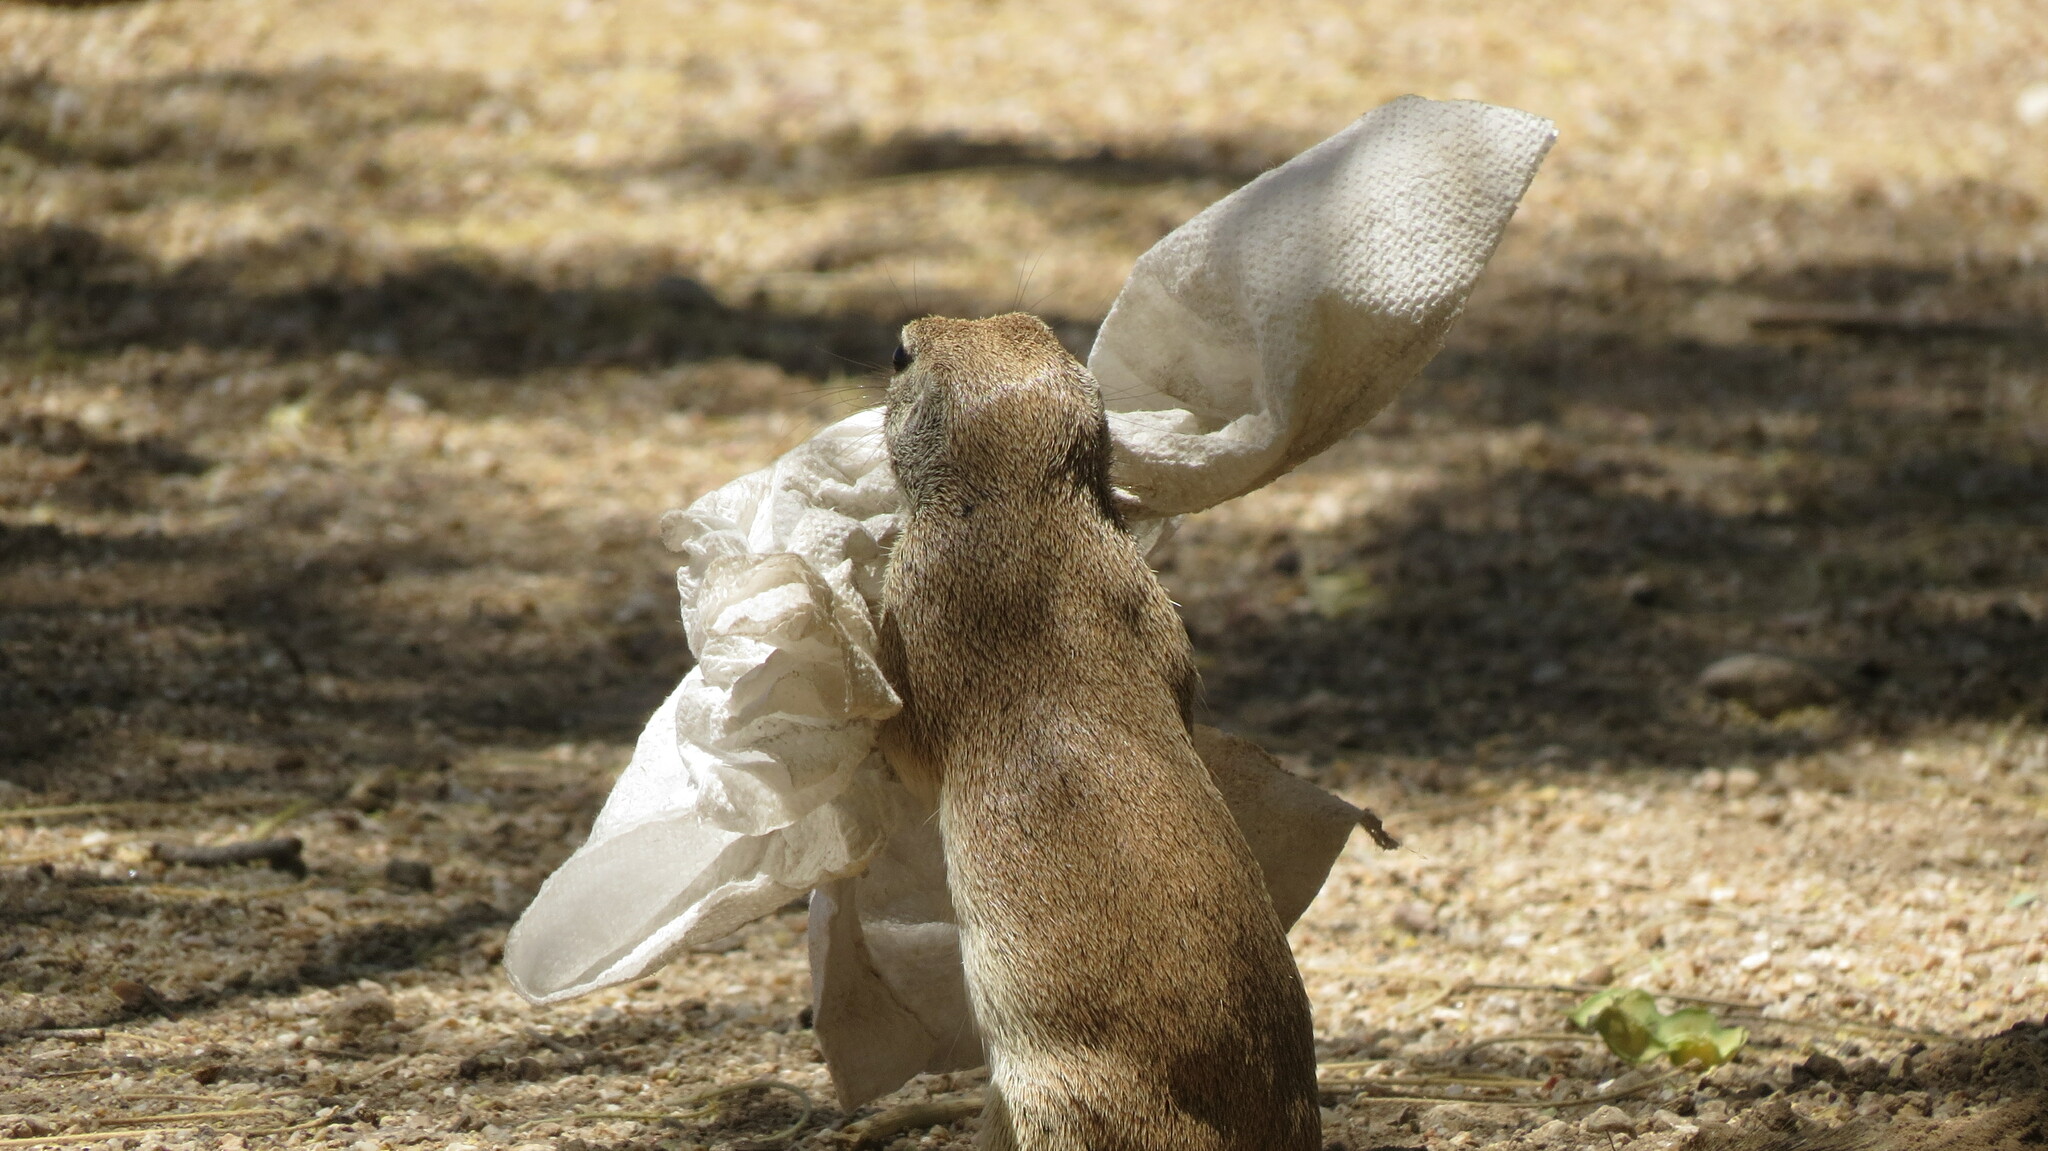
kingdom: Animalia
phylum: Chordata
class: Mammalia
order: Rodentia
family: Sciuridae
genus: Xerospermophilus
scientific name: Xerospermophilus tereticaudus
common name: Round-tailed ground squirrel
